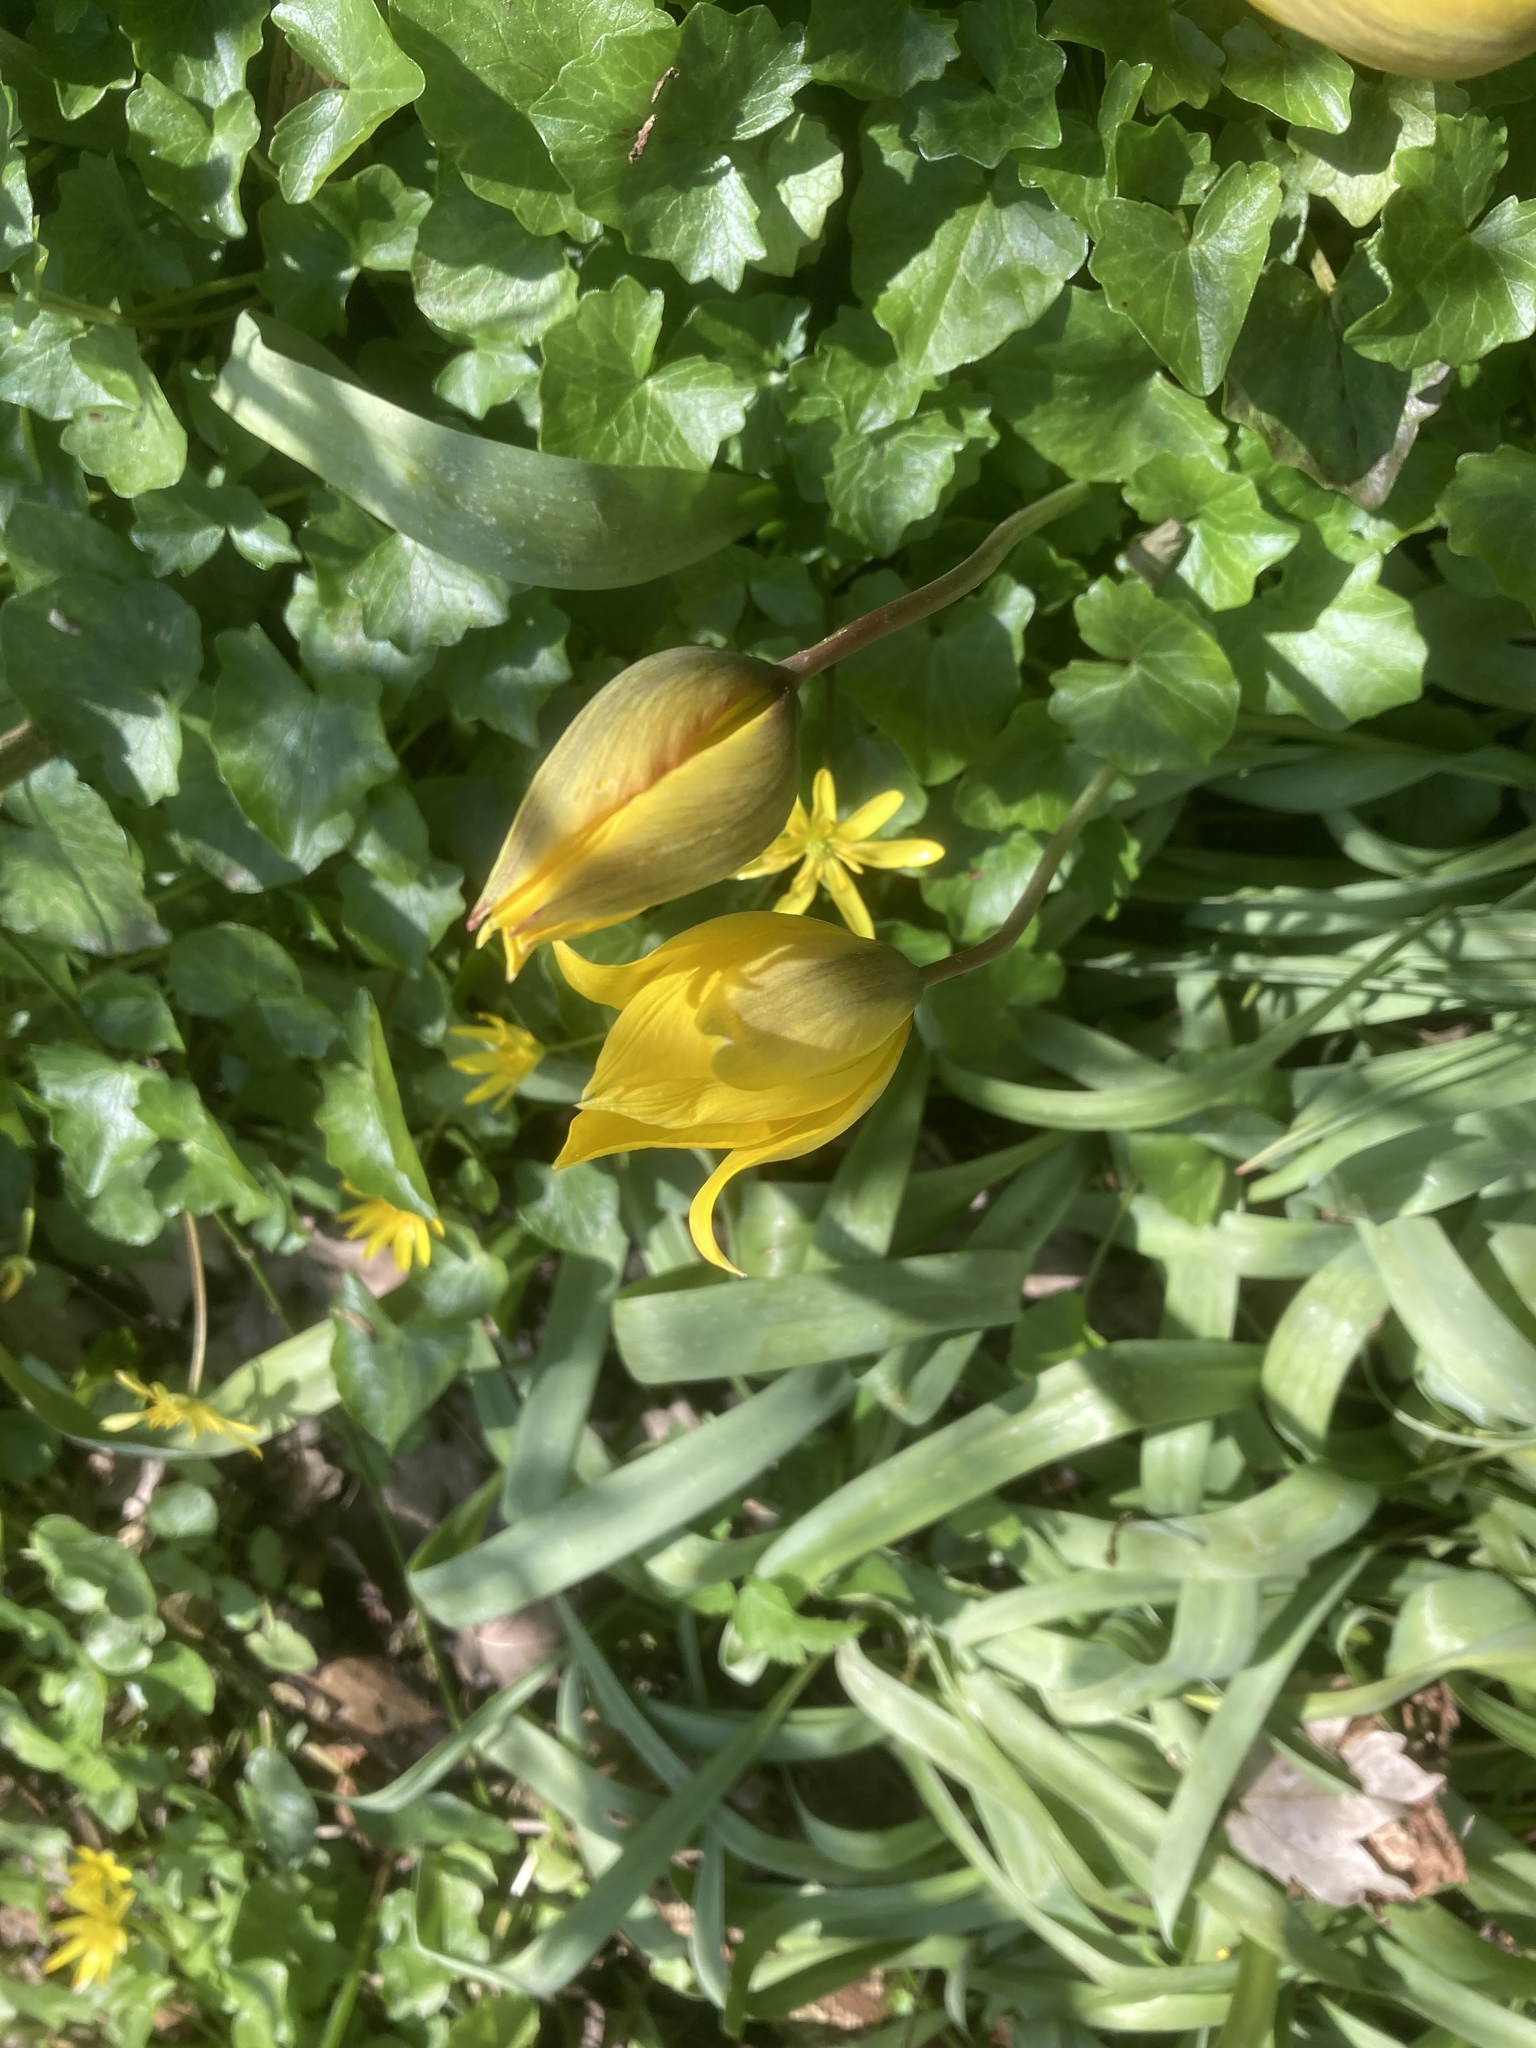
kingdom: Plantae
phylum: Tracheophyta
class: Magnoliopsida
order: Ranunculales
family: Ranunculaceae
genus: Ficaria
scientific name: Ficaria verna
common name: Lesser celandine
